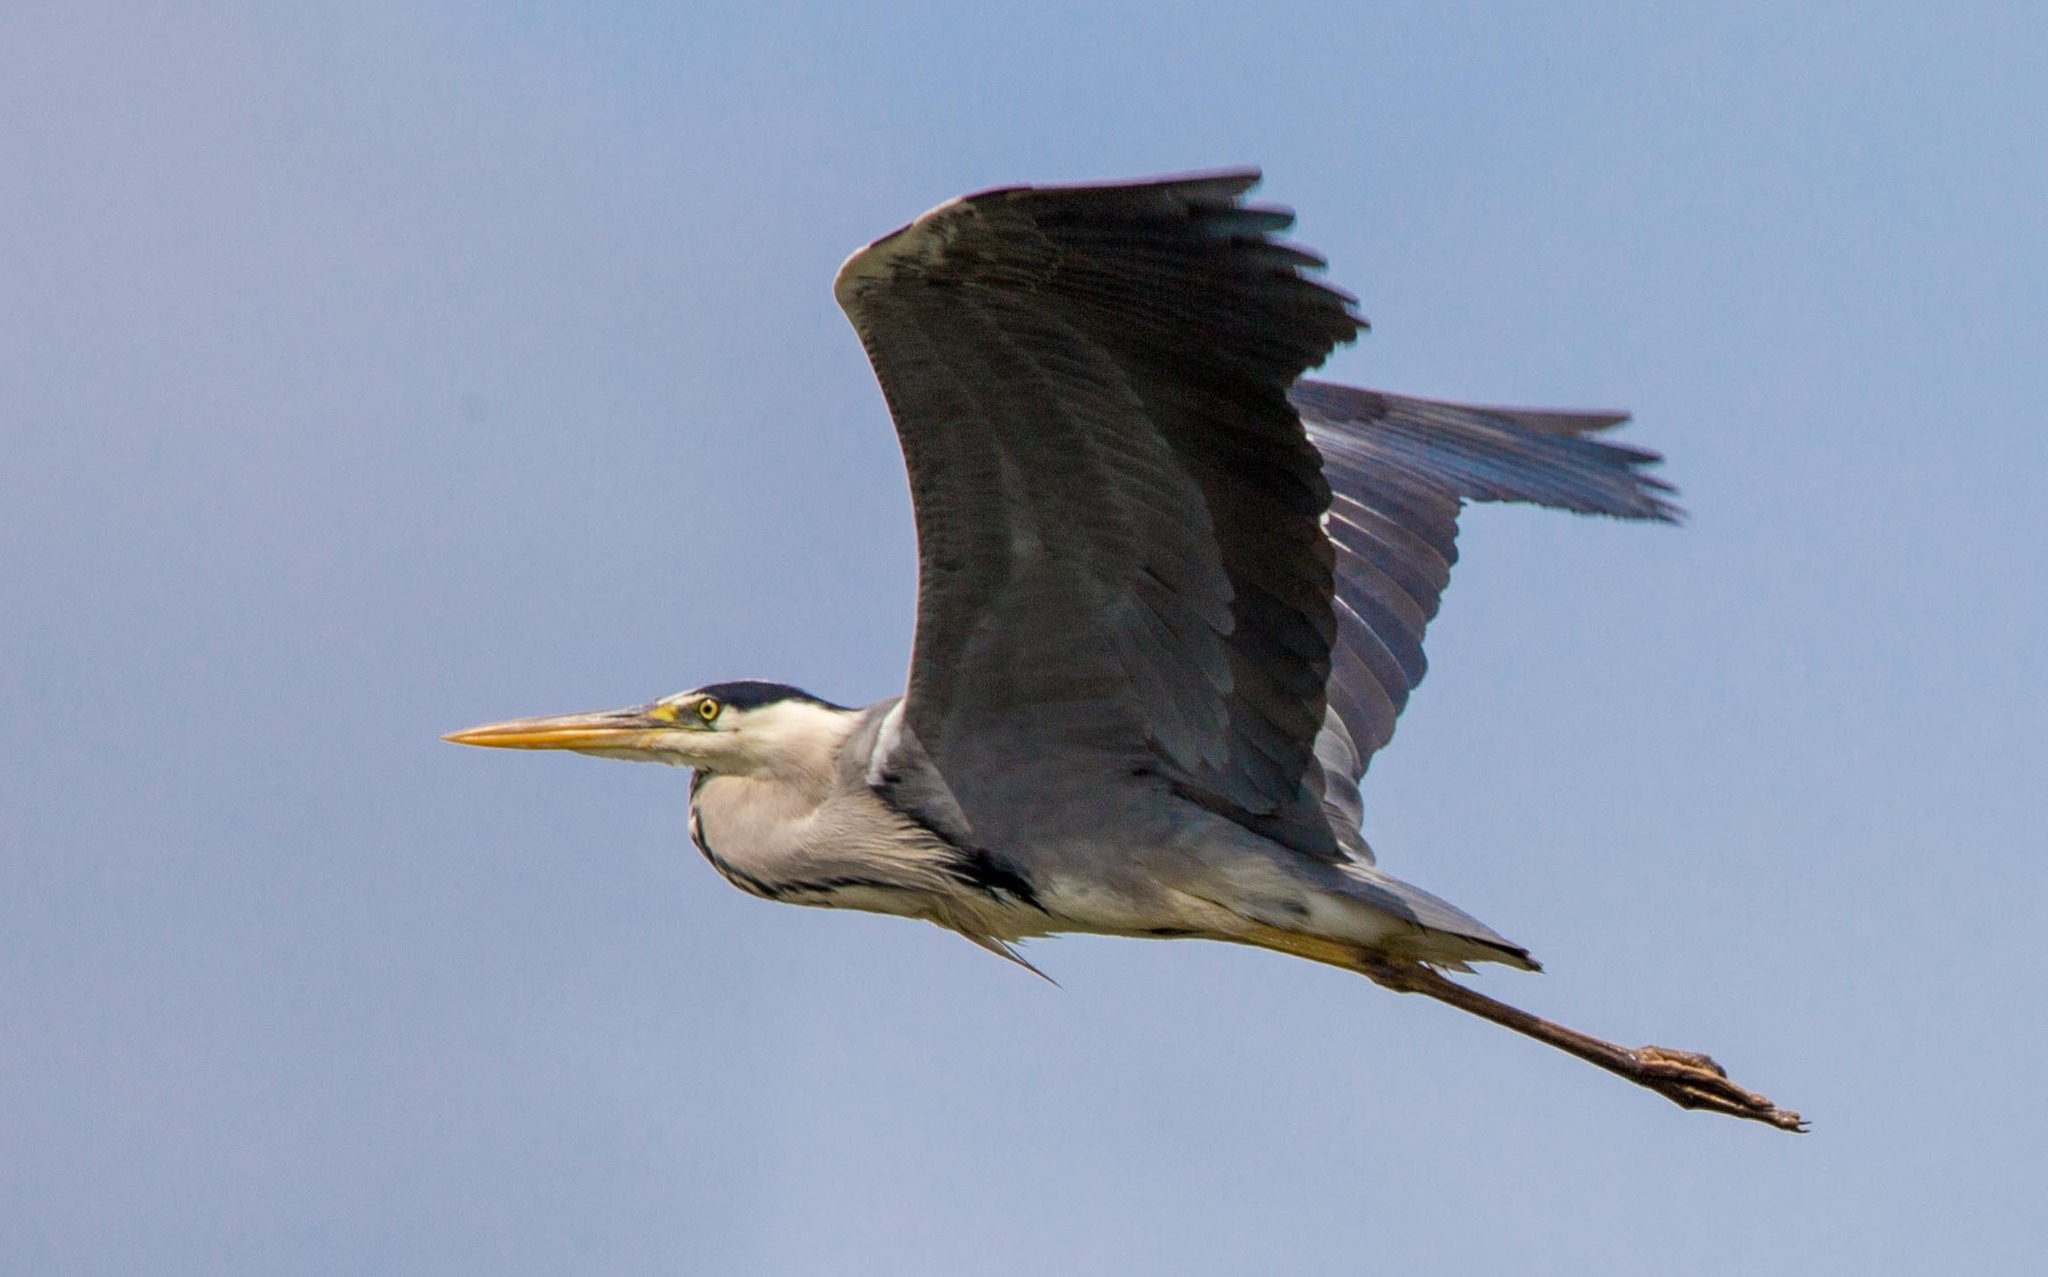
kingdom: Animalia
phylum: Chordata
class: Aves
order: Pelecaniformes
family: Ardeidae
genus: Ardea
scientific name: Ardea cinerea
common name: Grey heron
